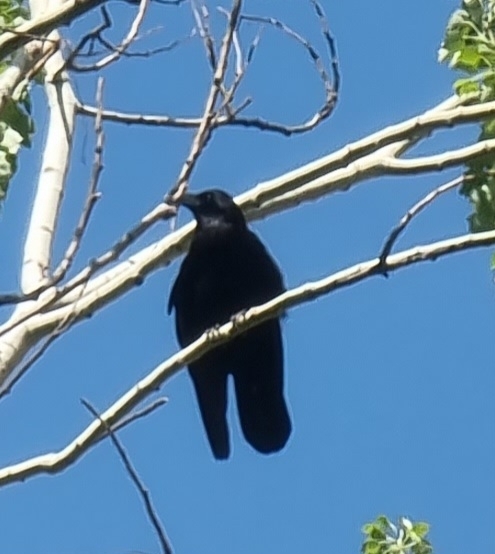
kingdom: Animalia
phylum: Chordata
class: Aves
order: Passeriformes
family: Corvidae
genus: Corvus
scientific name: Corvus corone
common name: Carrion crow
